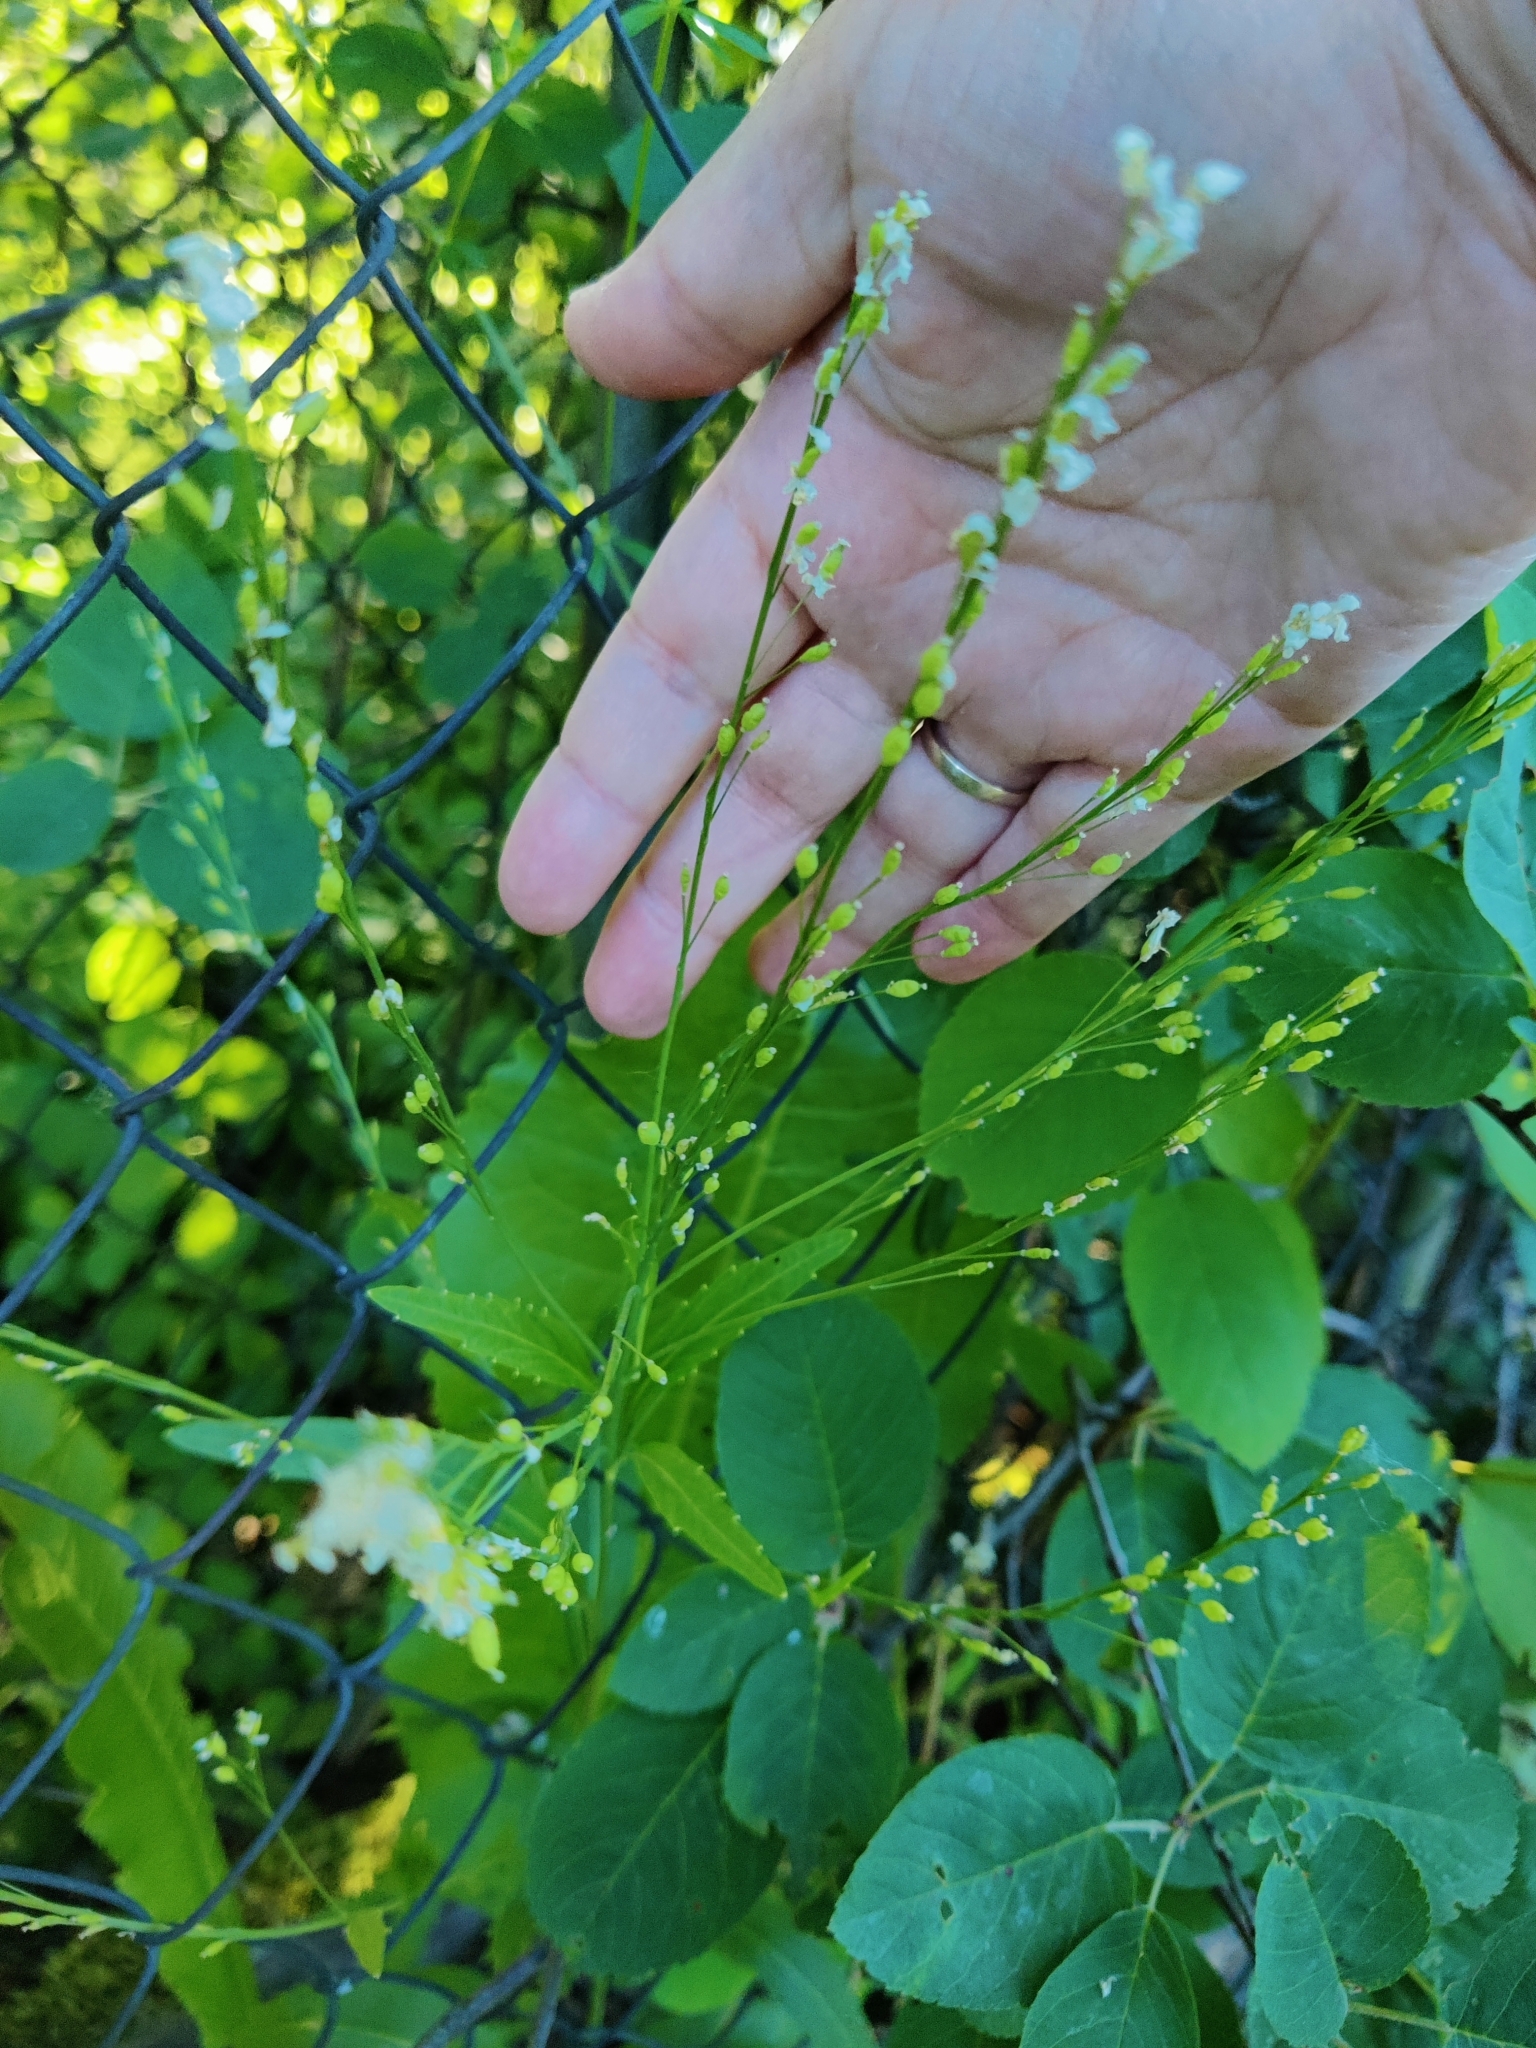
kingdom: Plantae
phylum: Tracheophyta
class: Magnoliopsida
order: Brassicales
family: Brassicaceae
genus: Rorippa
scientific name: Rorippa austriaca
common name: Austrian yellow-cress
